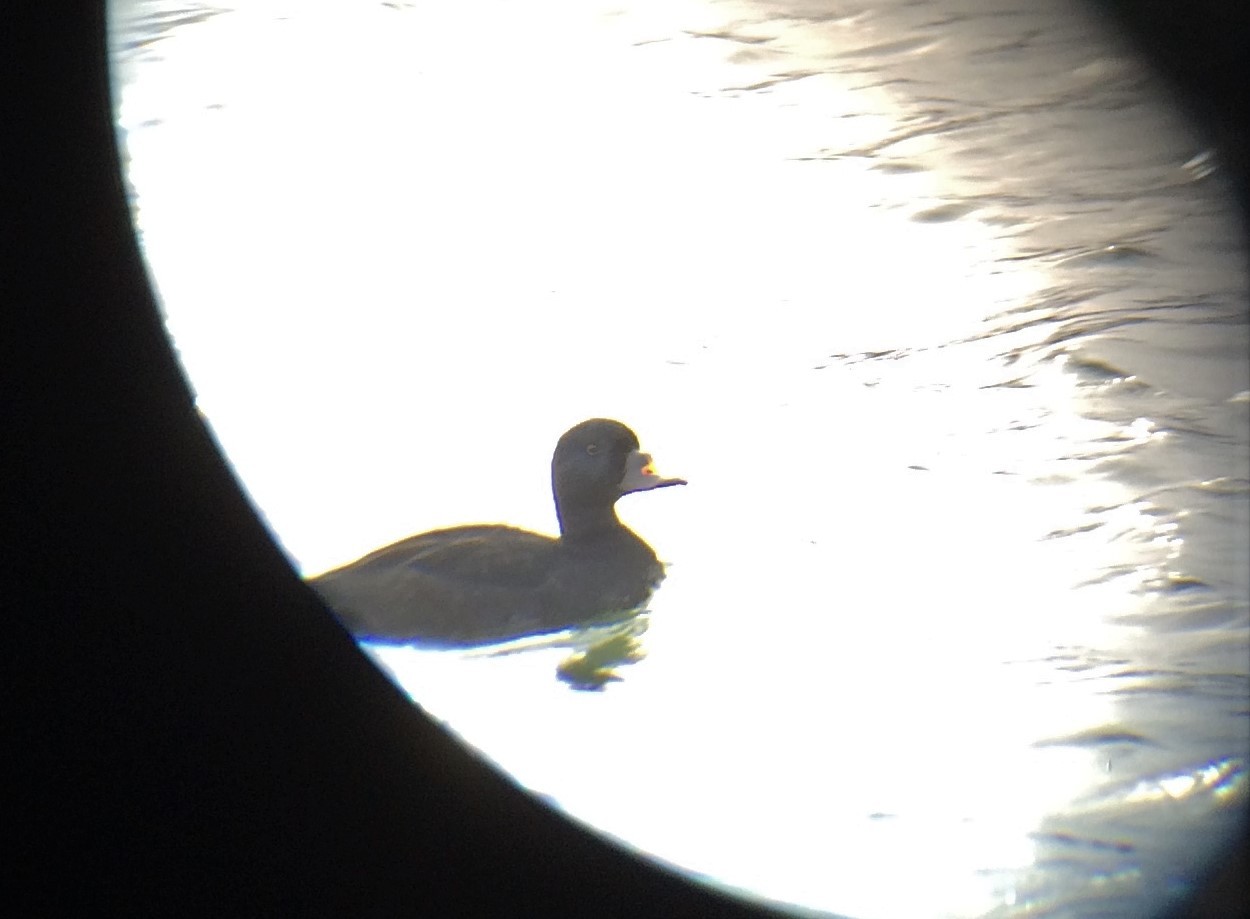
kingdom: Animalia
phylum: Chordata
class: Aves
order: Anseriformes
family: Anatidae
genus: Melanitta
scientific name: Melanitta nigra
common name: Common scoter
